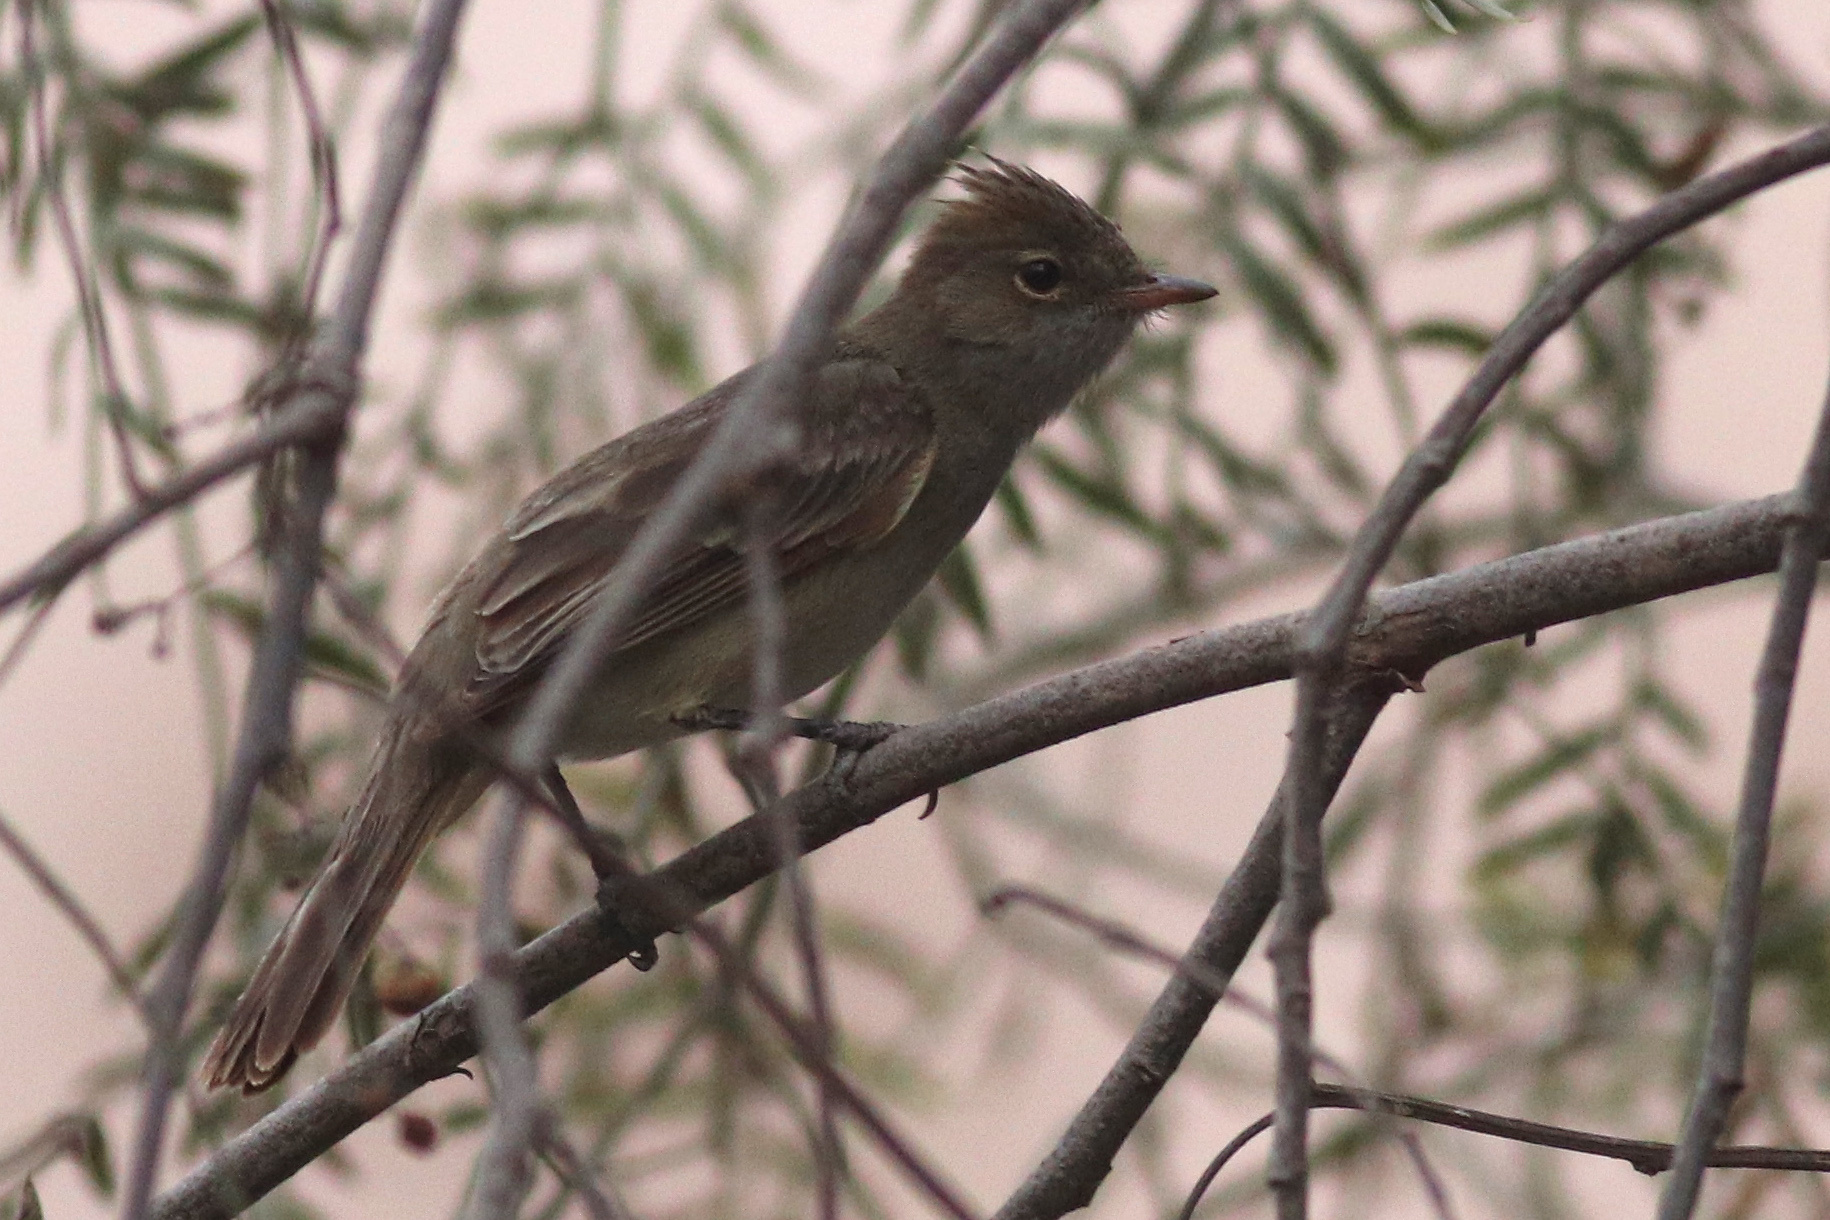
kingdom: Animalia
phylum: Chordata
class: Aves
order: Passeriformes
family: Tyrannidae
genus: Elaenia
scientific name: Elaenia albiceps
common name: White-crested elaenia
